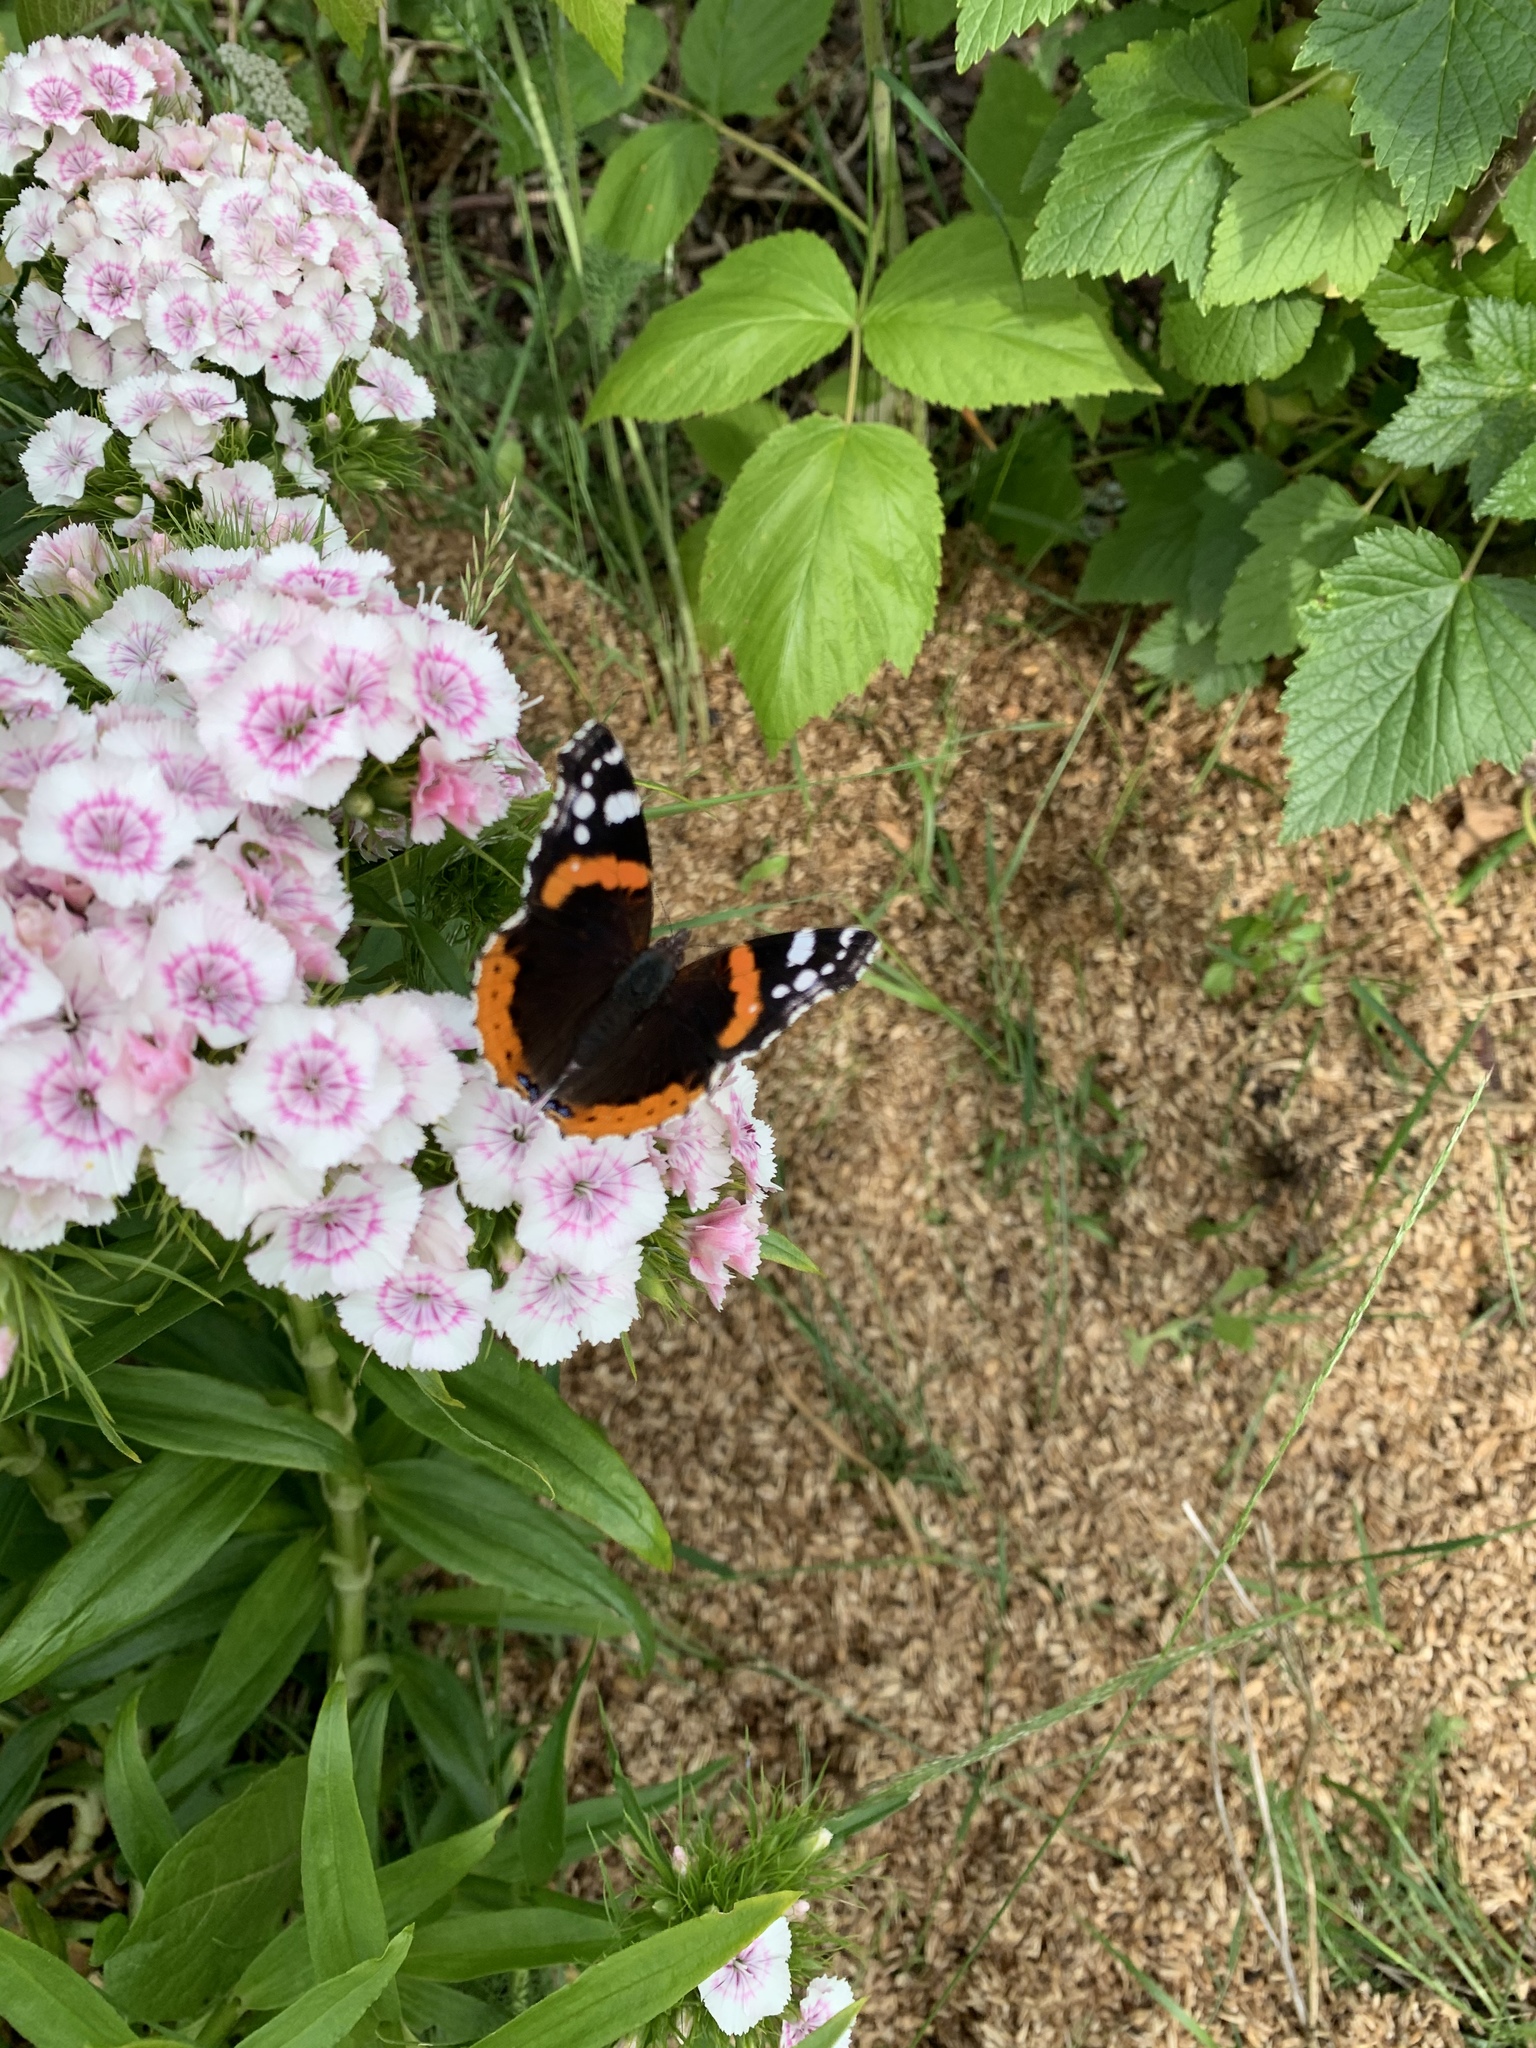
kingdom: Animalia
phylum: Arthropoda
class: Insecta
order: Lepidoptera
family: Nymphalidae
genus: Vanessa
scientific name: Vanessa atalanta
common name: Red admiral
